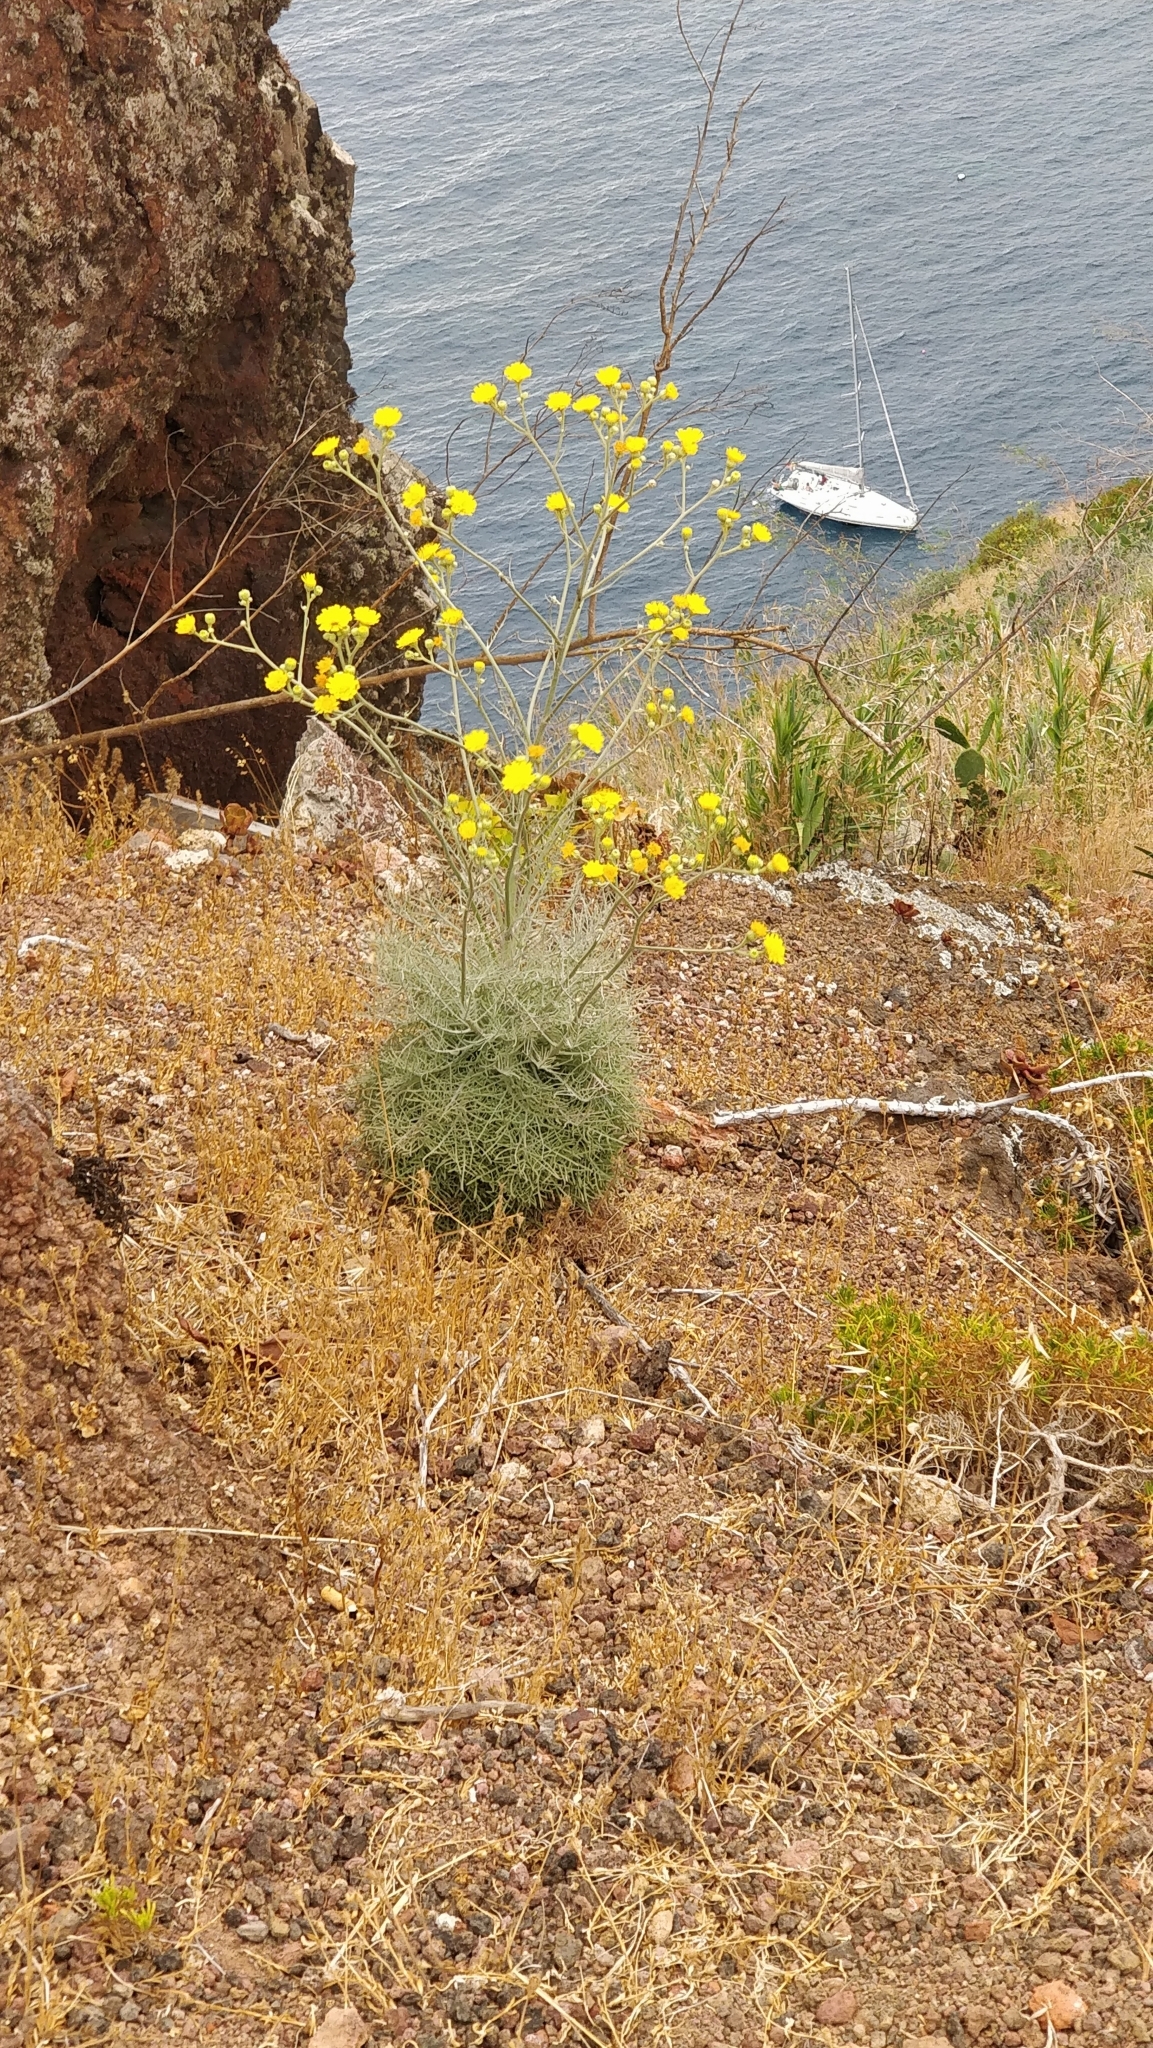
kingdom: Plantae
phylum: Tracheophyta
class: Magnoliopsida
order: Asterales
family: Asteraceae
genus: Andryala
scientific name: Andryala crithmifolia
